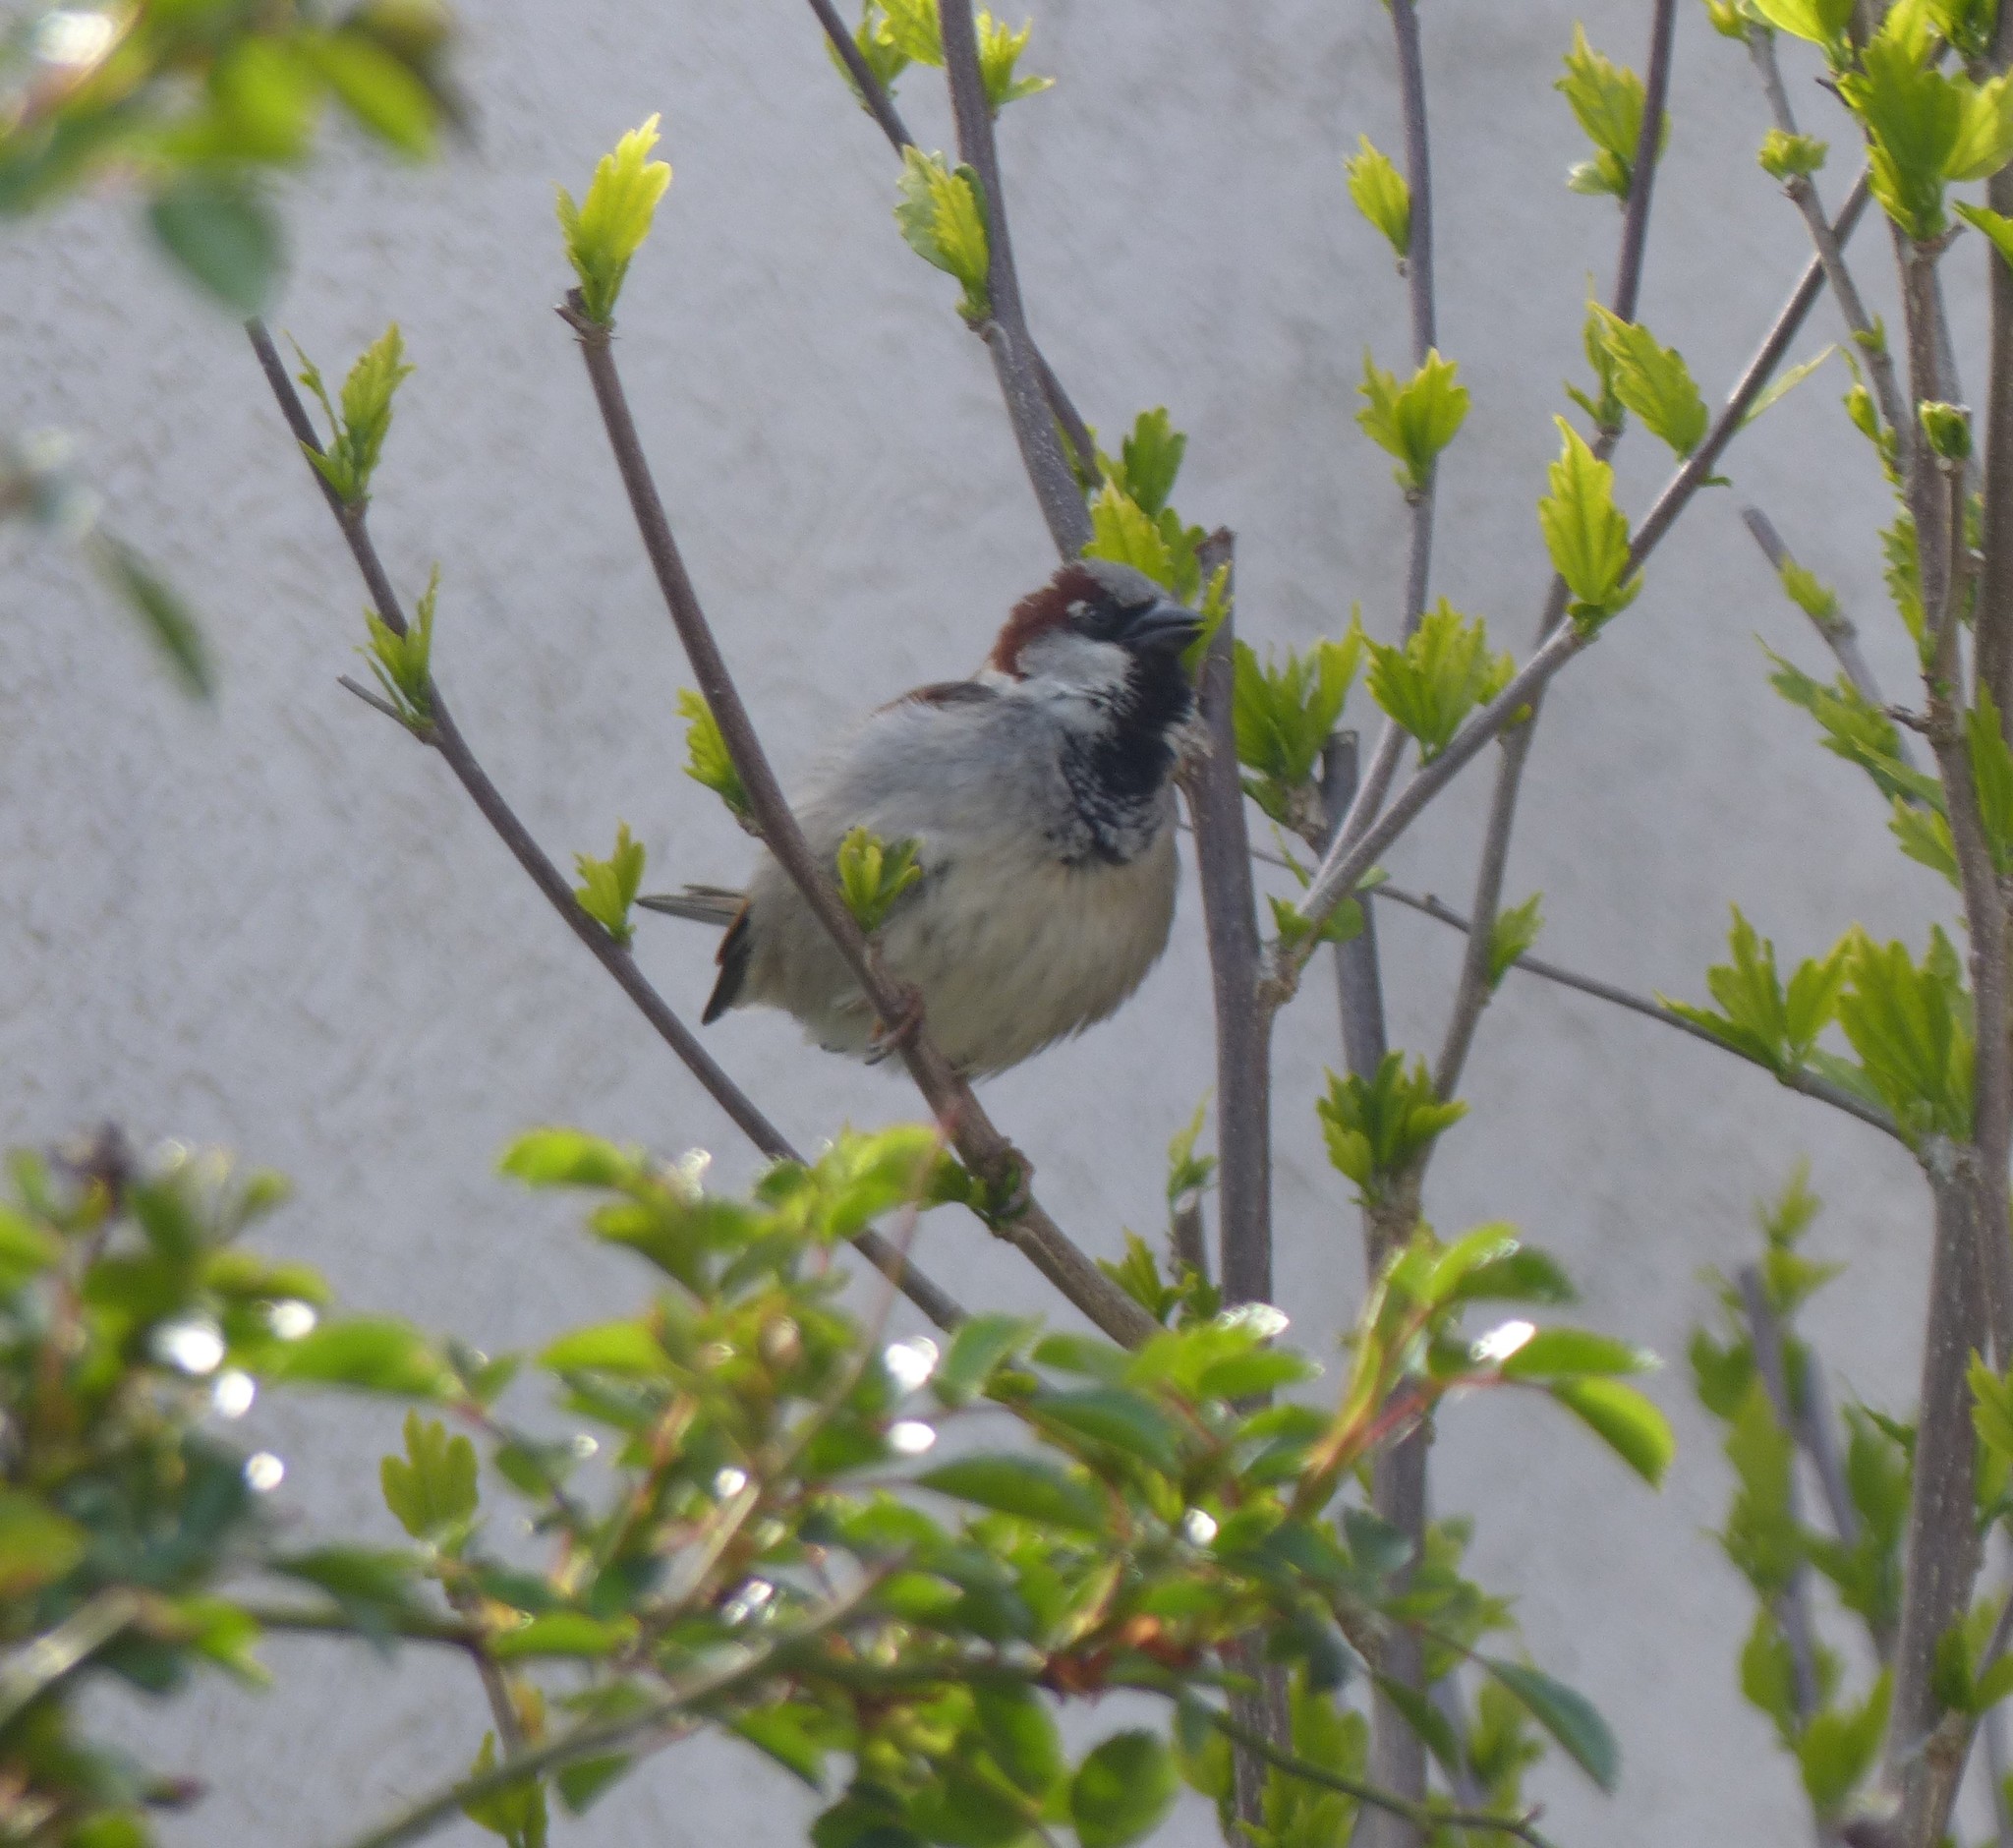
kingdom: Animalia
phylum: Chordata
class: Aves
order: Passeriformes
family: Passeridae
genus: Passer
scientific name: Passer domesticus
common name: House sparrow
